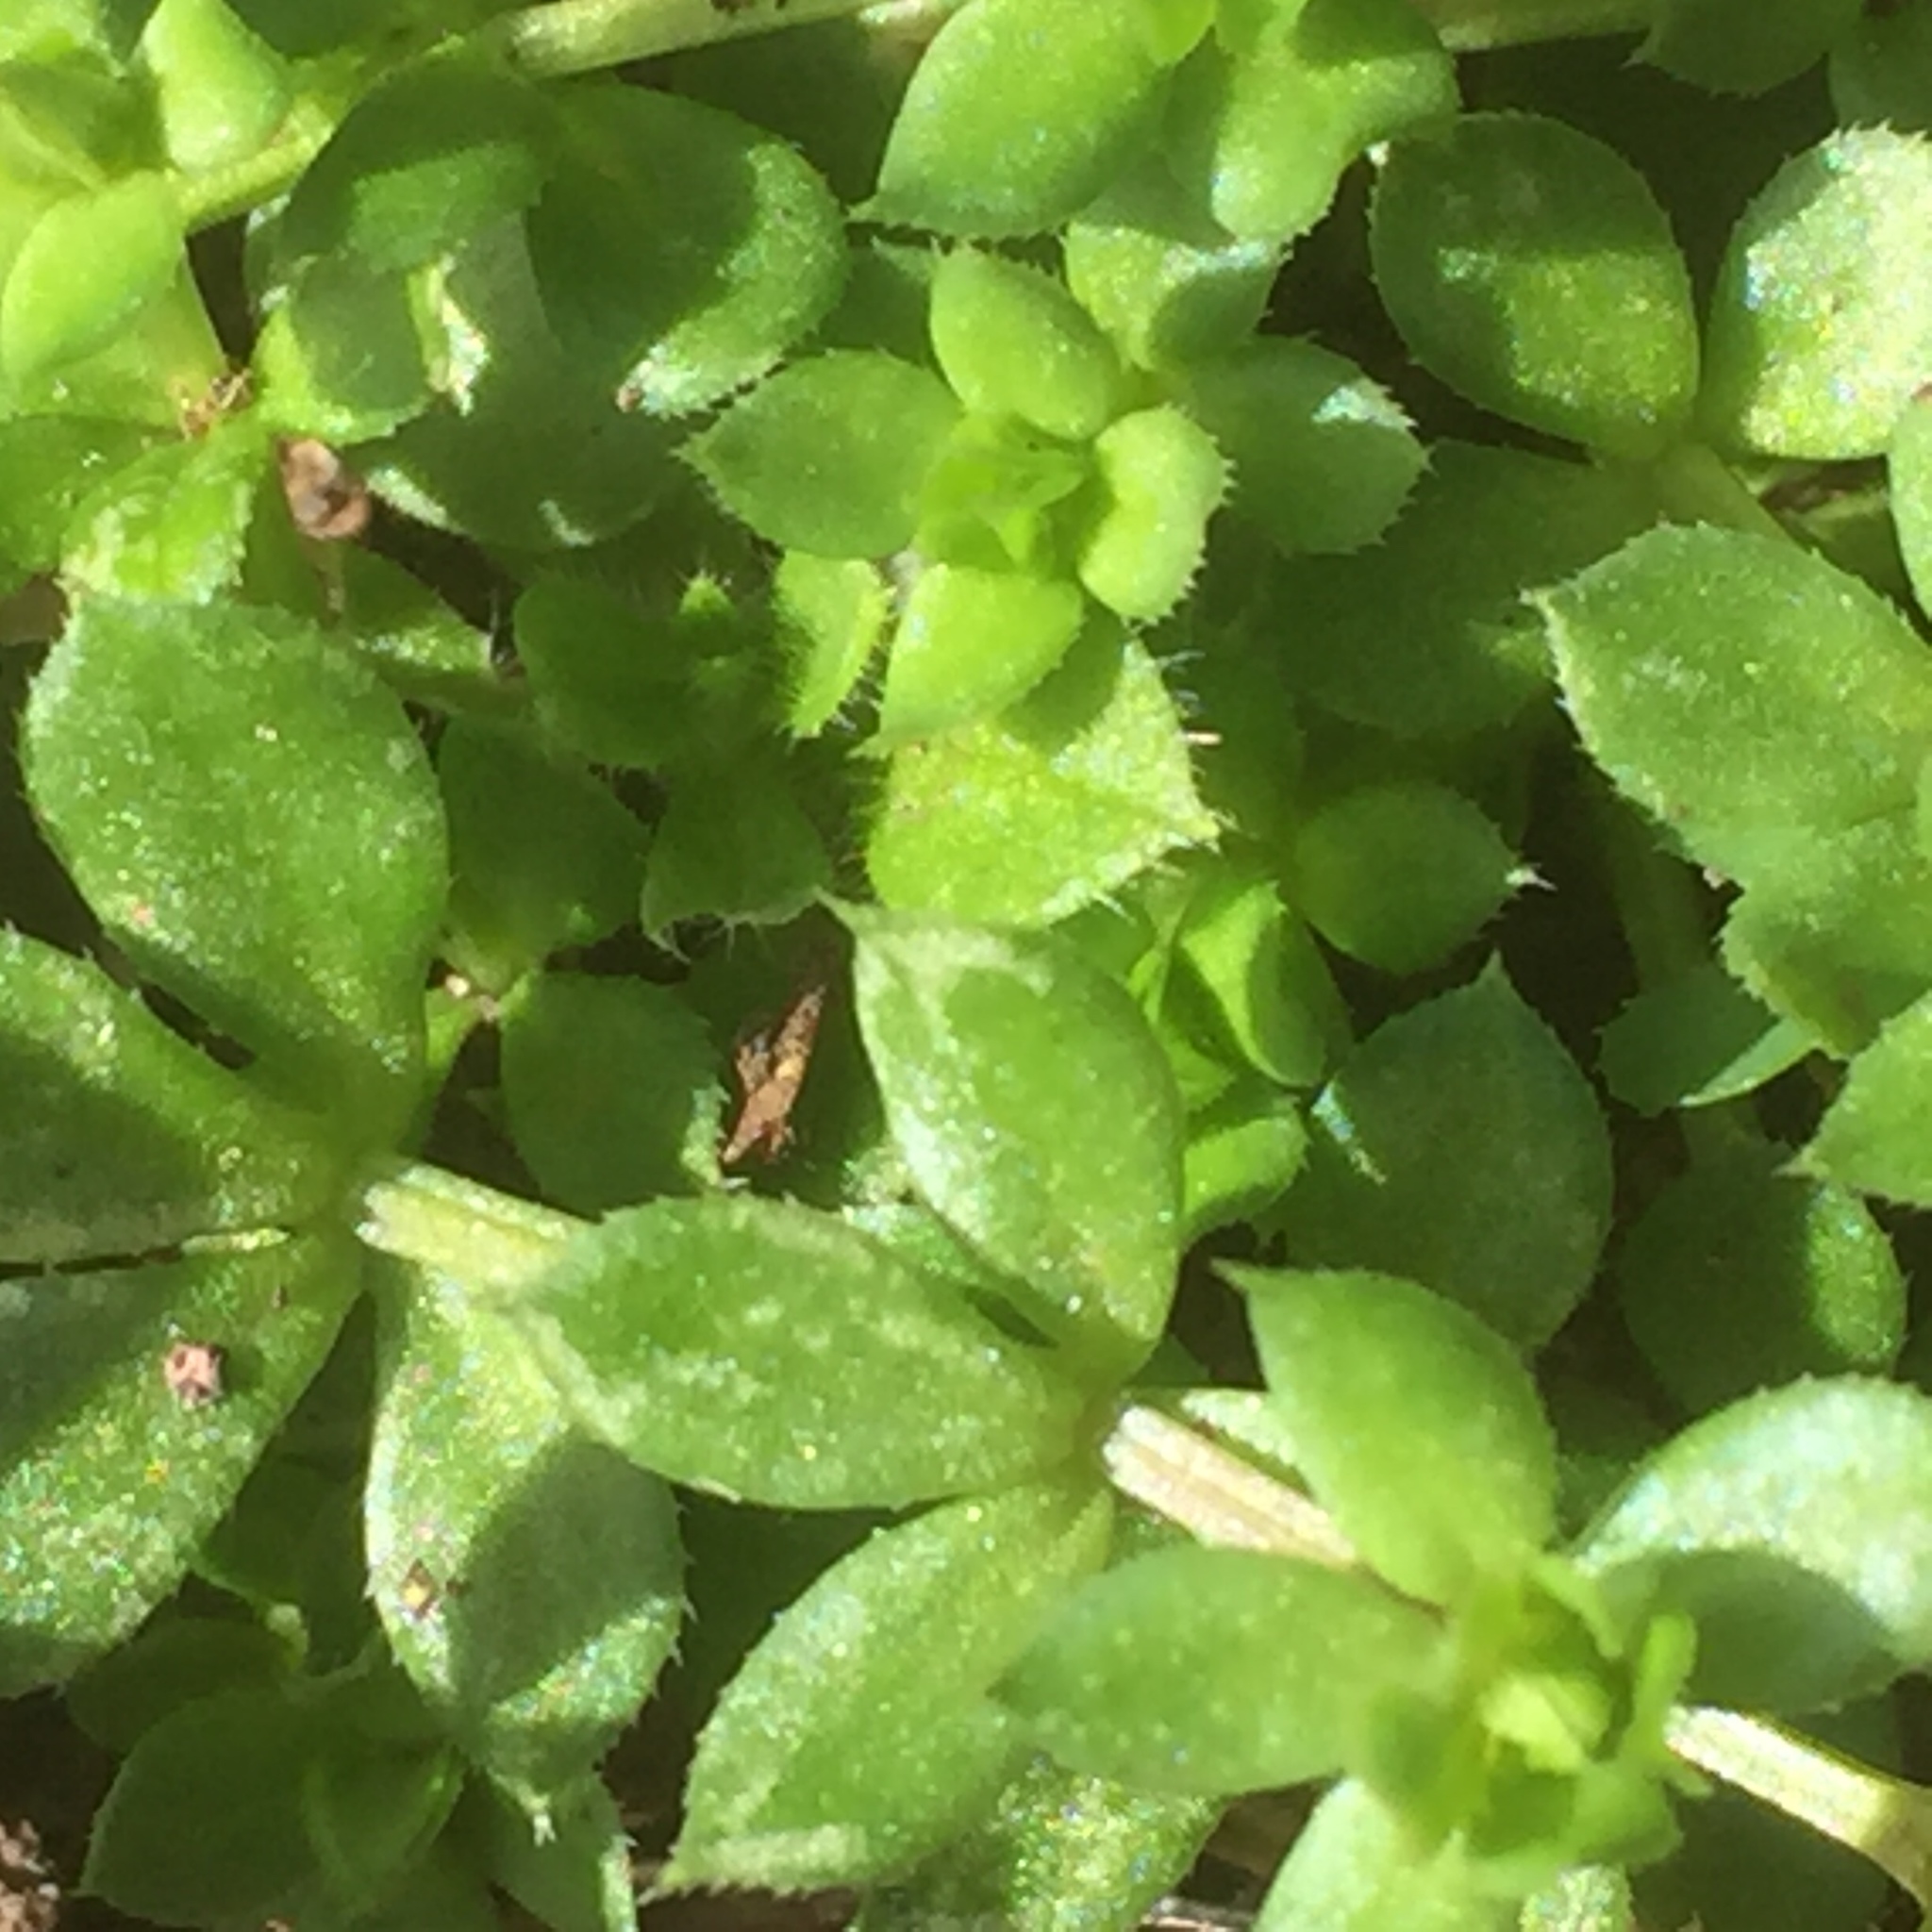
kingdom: Plantae
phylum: Tracheophyta
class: Magnoliopsida
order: Gentianales
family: Rubiaceae
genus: Sherardia
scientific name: Sherardia arvensis
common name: Field madder
